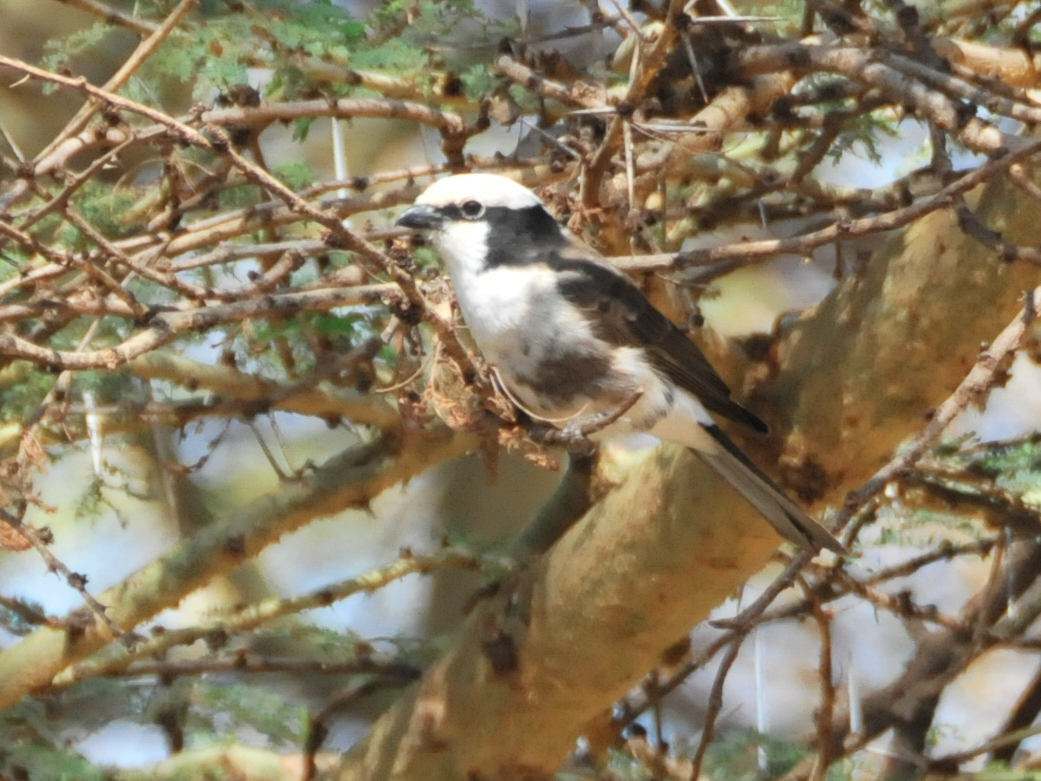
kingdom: Animalia
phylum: Chordata
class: Aves
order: Passeriformes
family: Laniidae
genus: Eurocephalus
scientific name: Eurocephalus ruppelli
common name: Northern white-crowned shrike
